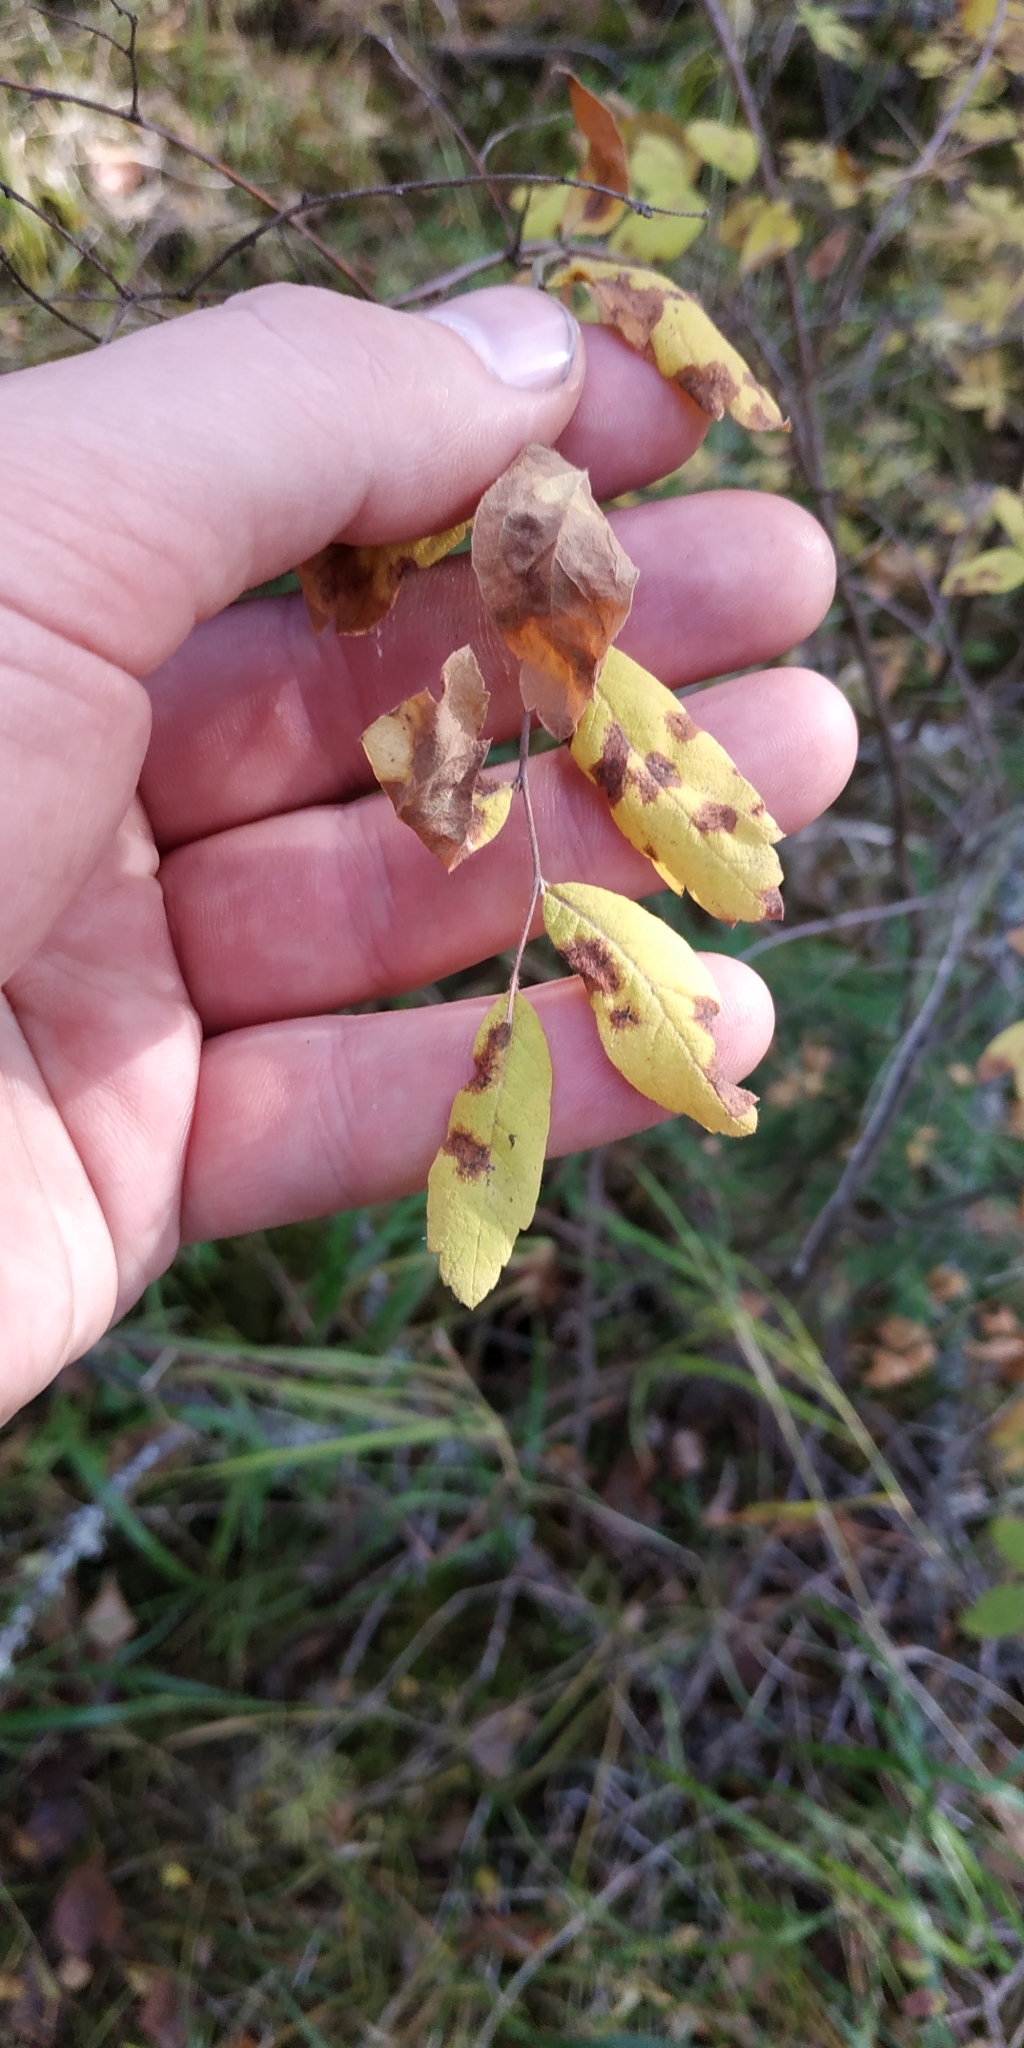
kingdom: Plantae
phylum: Tracheophyta
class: Magnoliopsida
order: Rosales
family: Rosaceae
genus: Spiraea
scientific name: Spiraea media
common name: Russian spiraea
